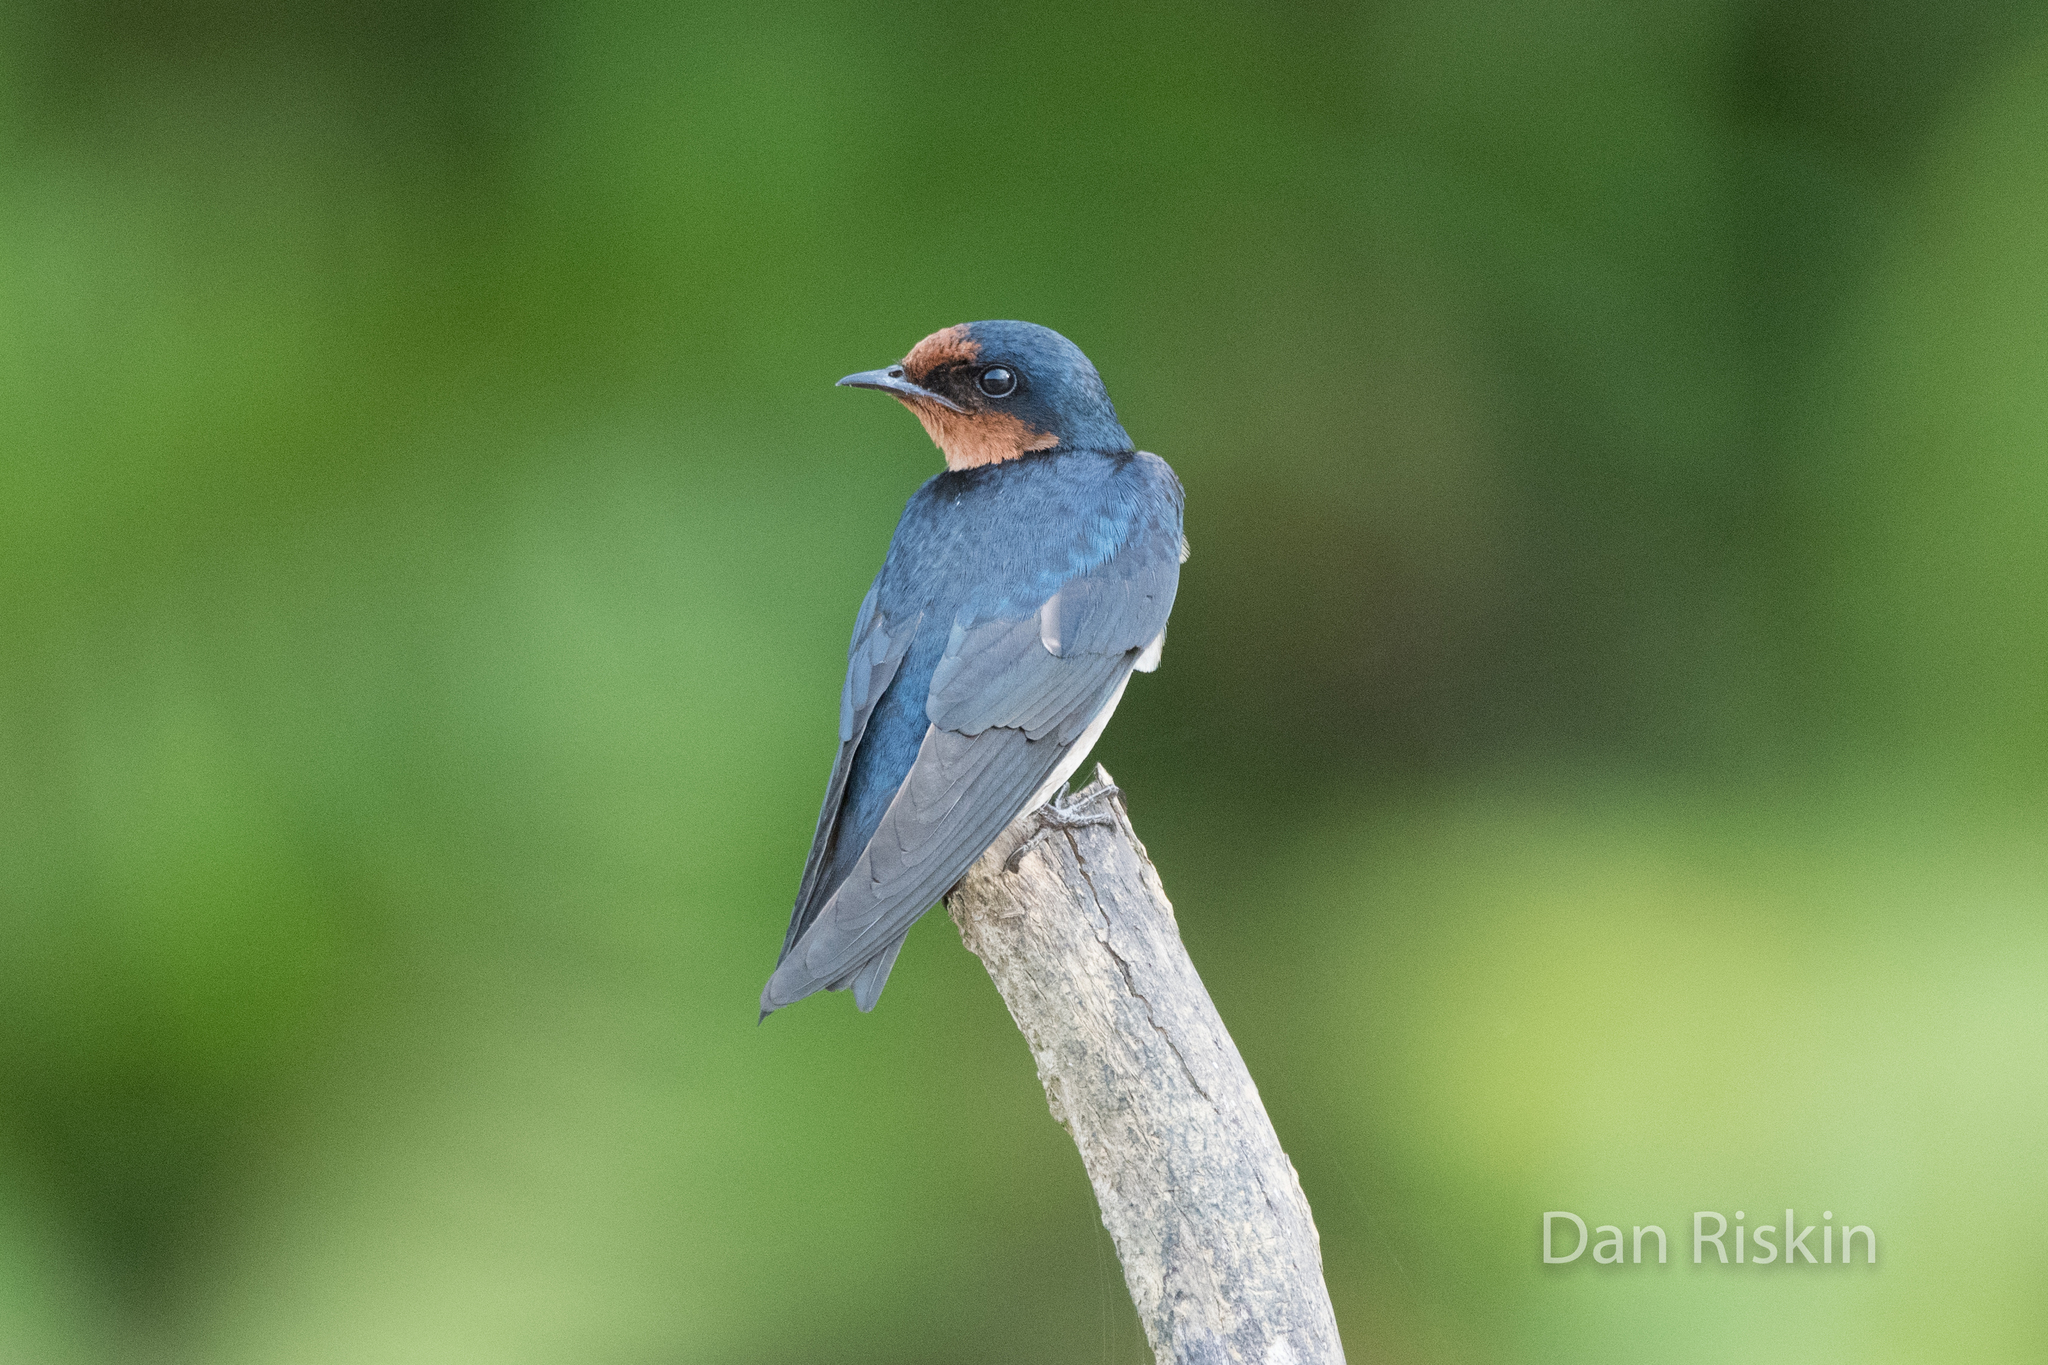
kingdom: Animalia
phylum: Chordata
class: Aves
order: Passeriformes
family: Hirundinidae
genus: Hirundo
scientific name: Hirundo tahitica
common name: Pacific swallow
